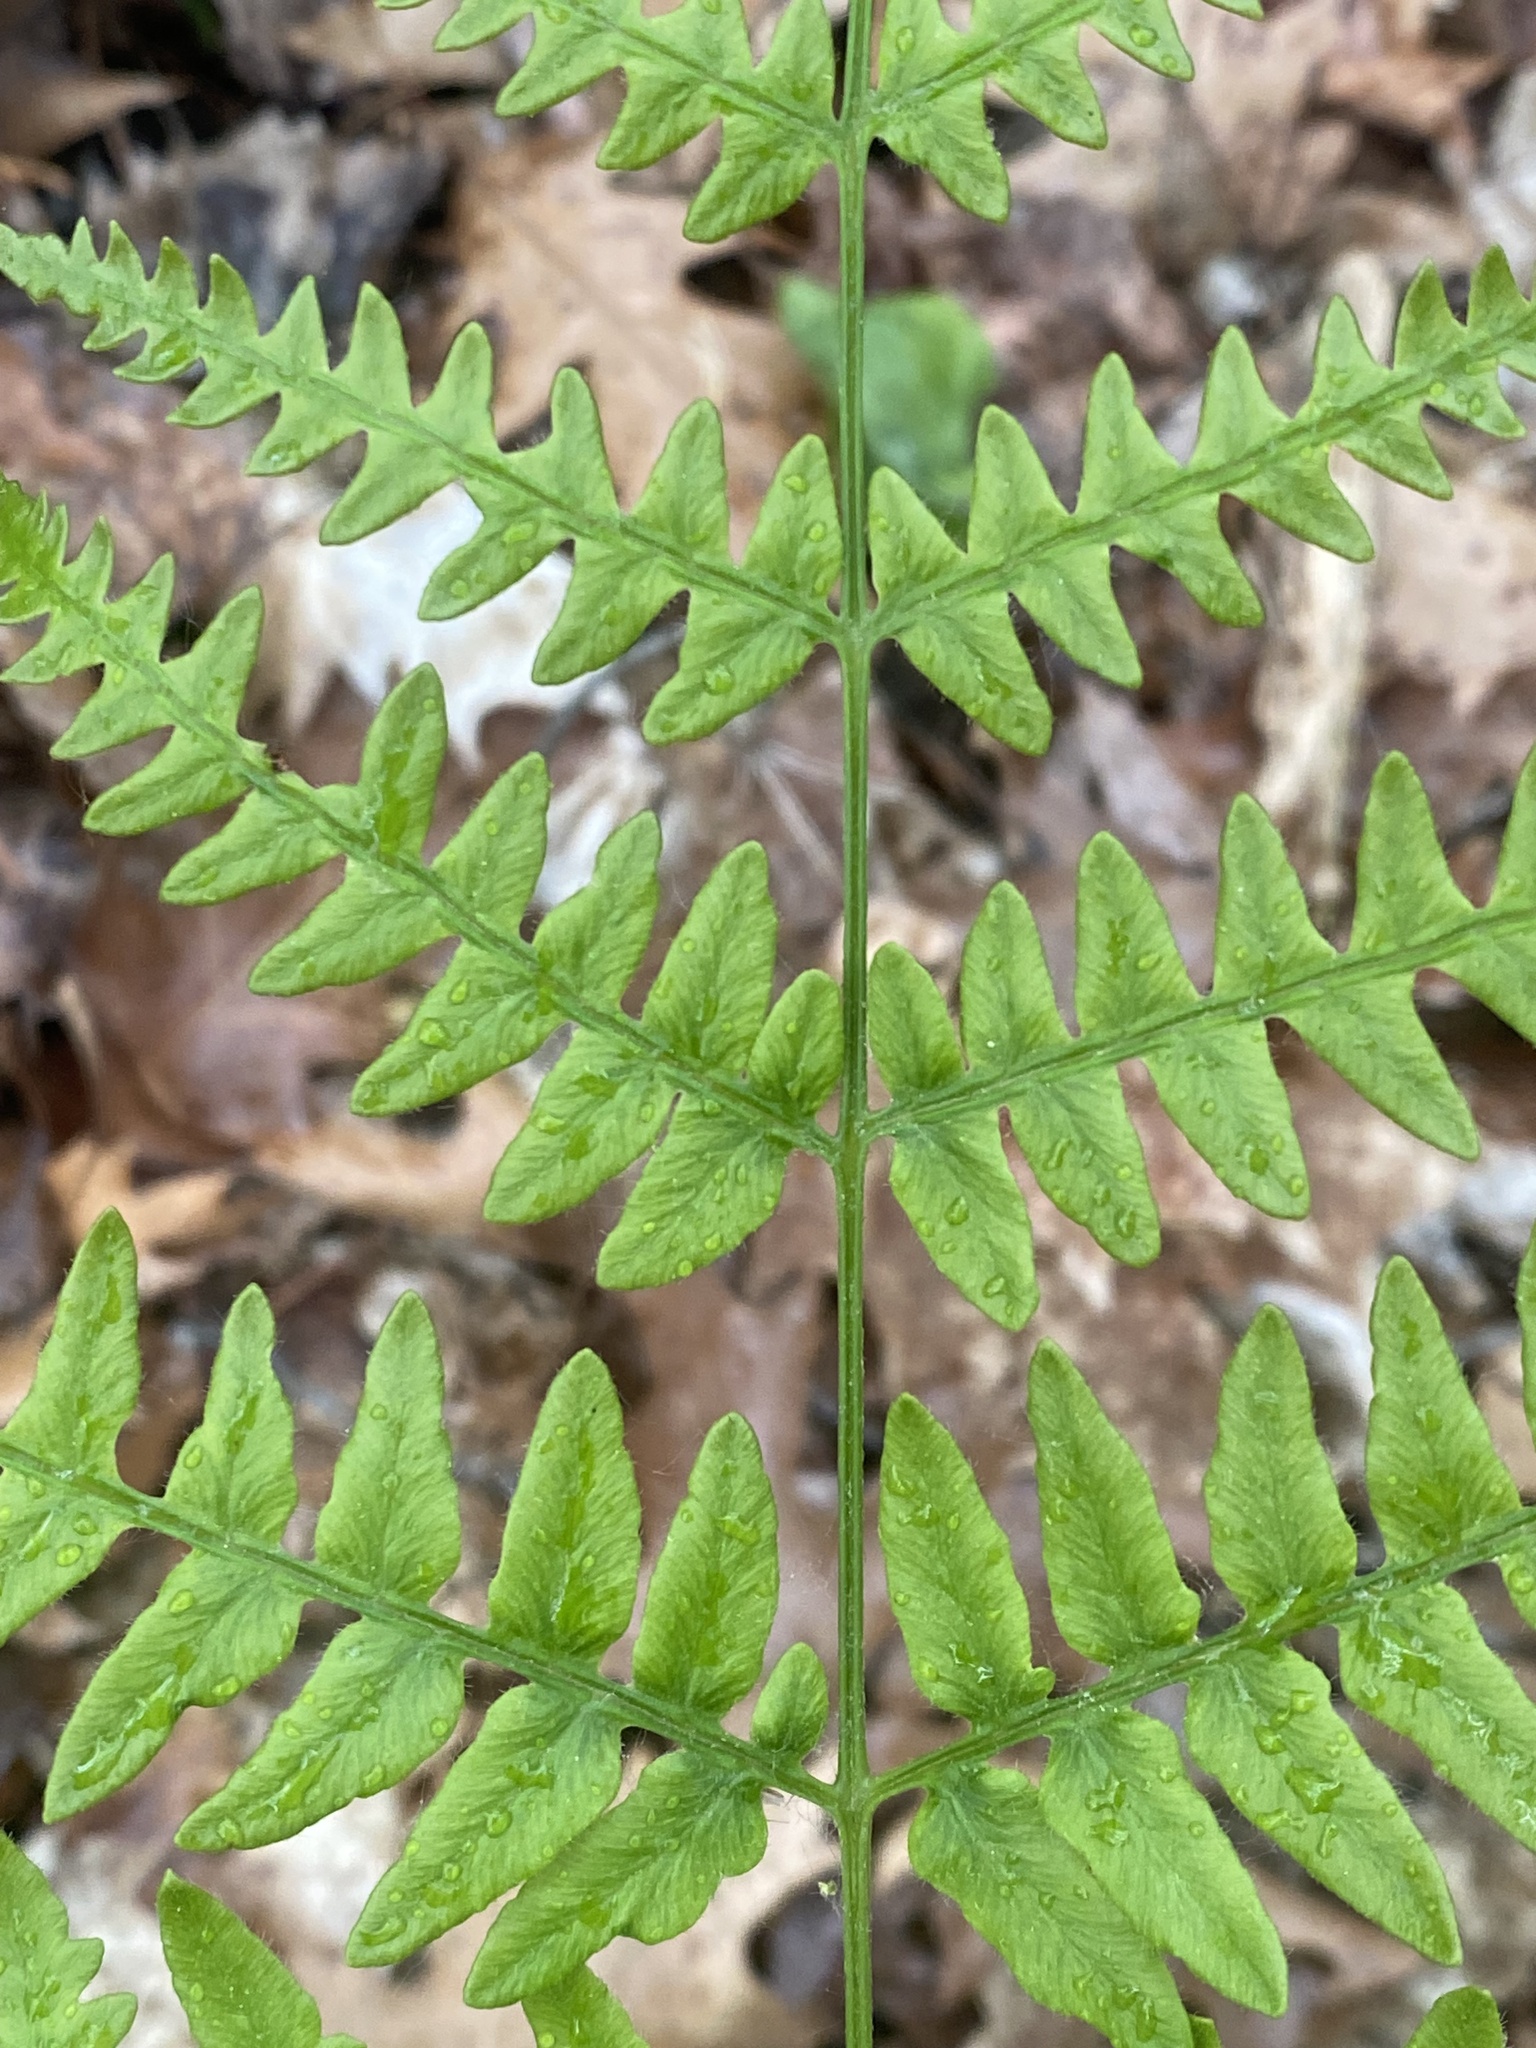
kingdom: Plantae
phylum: Tracheophyta
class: Polypodiopsida
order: Polypodiales
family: Dennstaedtiaceae
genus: Pteridium
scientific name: Pteridium aquilinum
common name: Bracken
